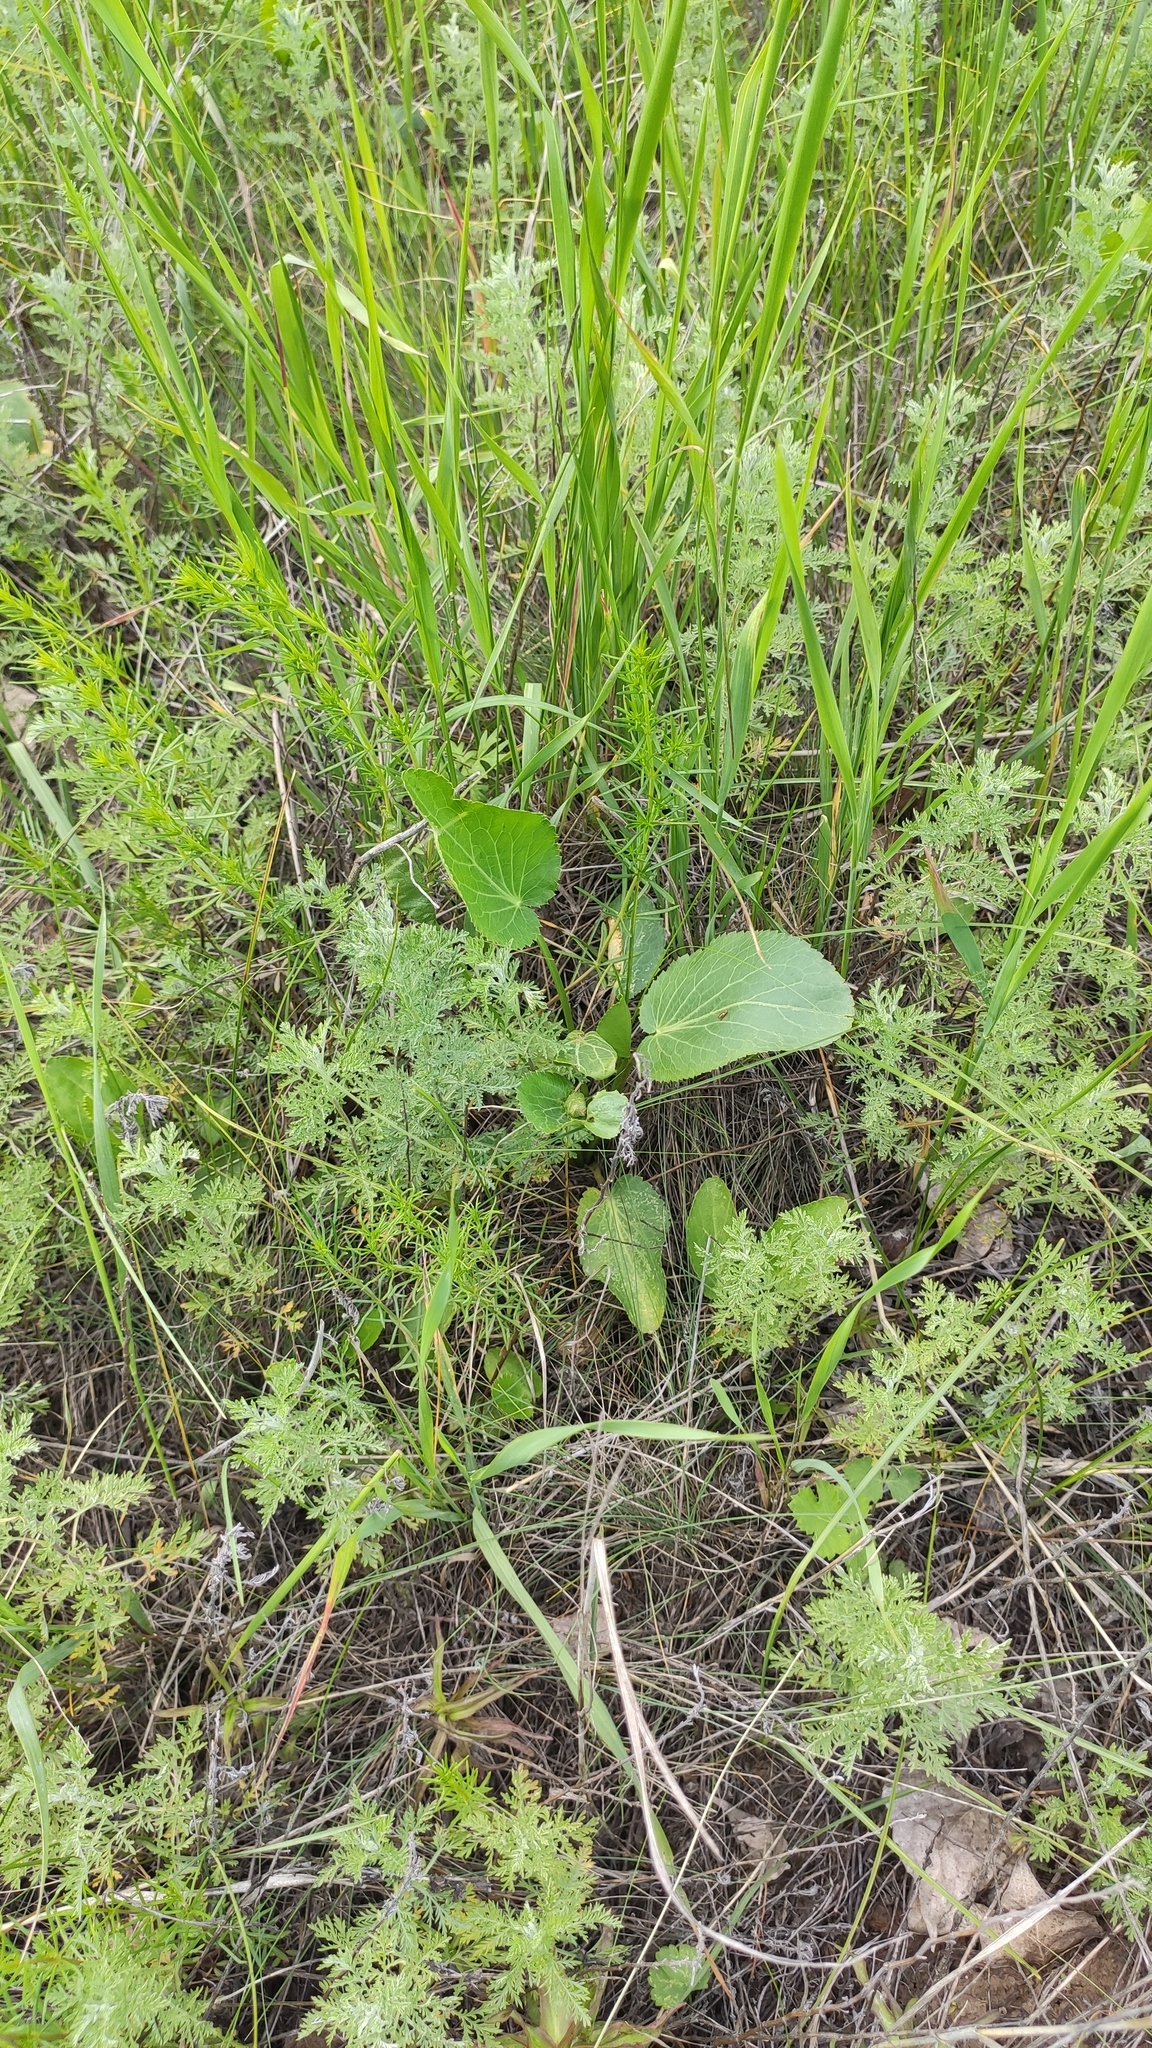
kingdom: Plantae
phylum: Tracheophyta
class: Magnoliopsida
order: Apiales
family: Apiaceae
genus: Eryngium
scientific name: Eryngium planum
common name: Blue eryngo
